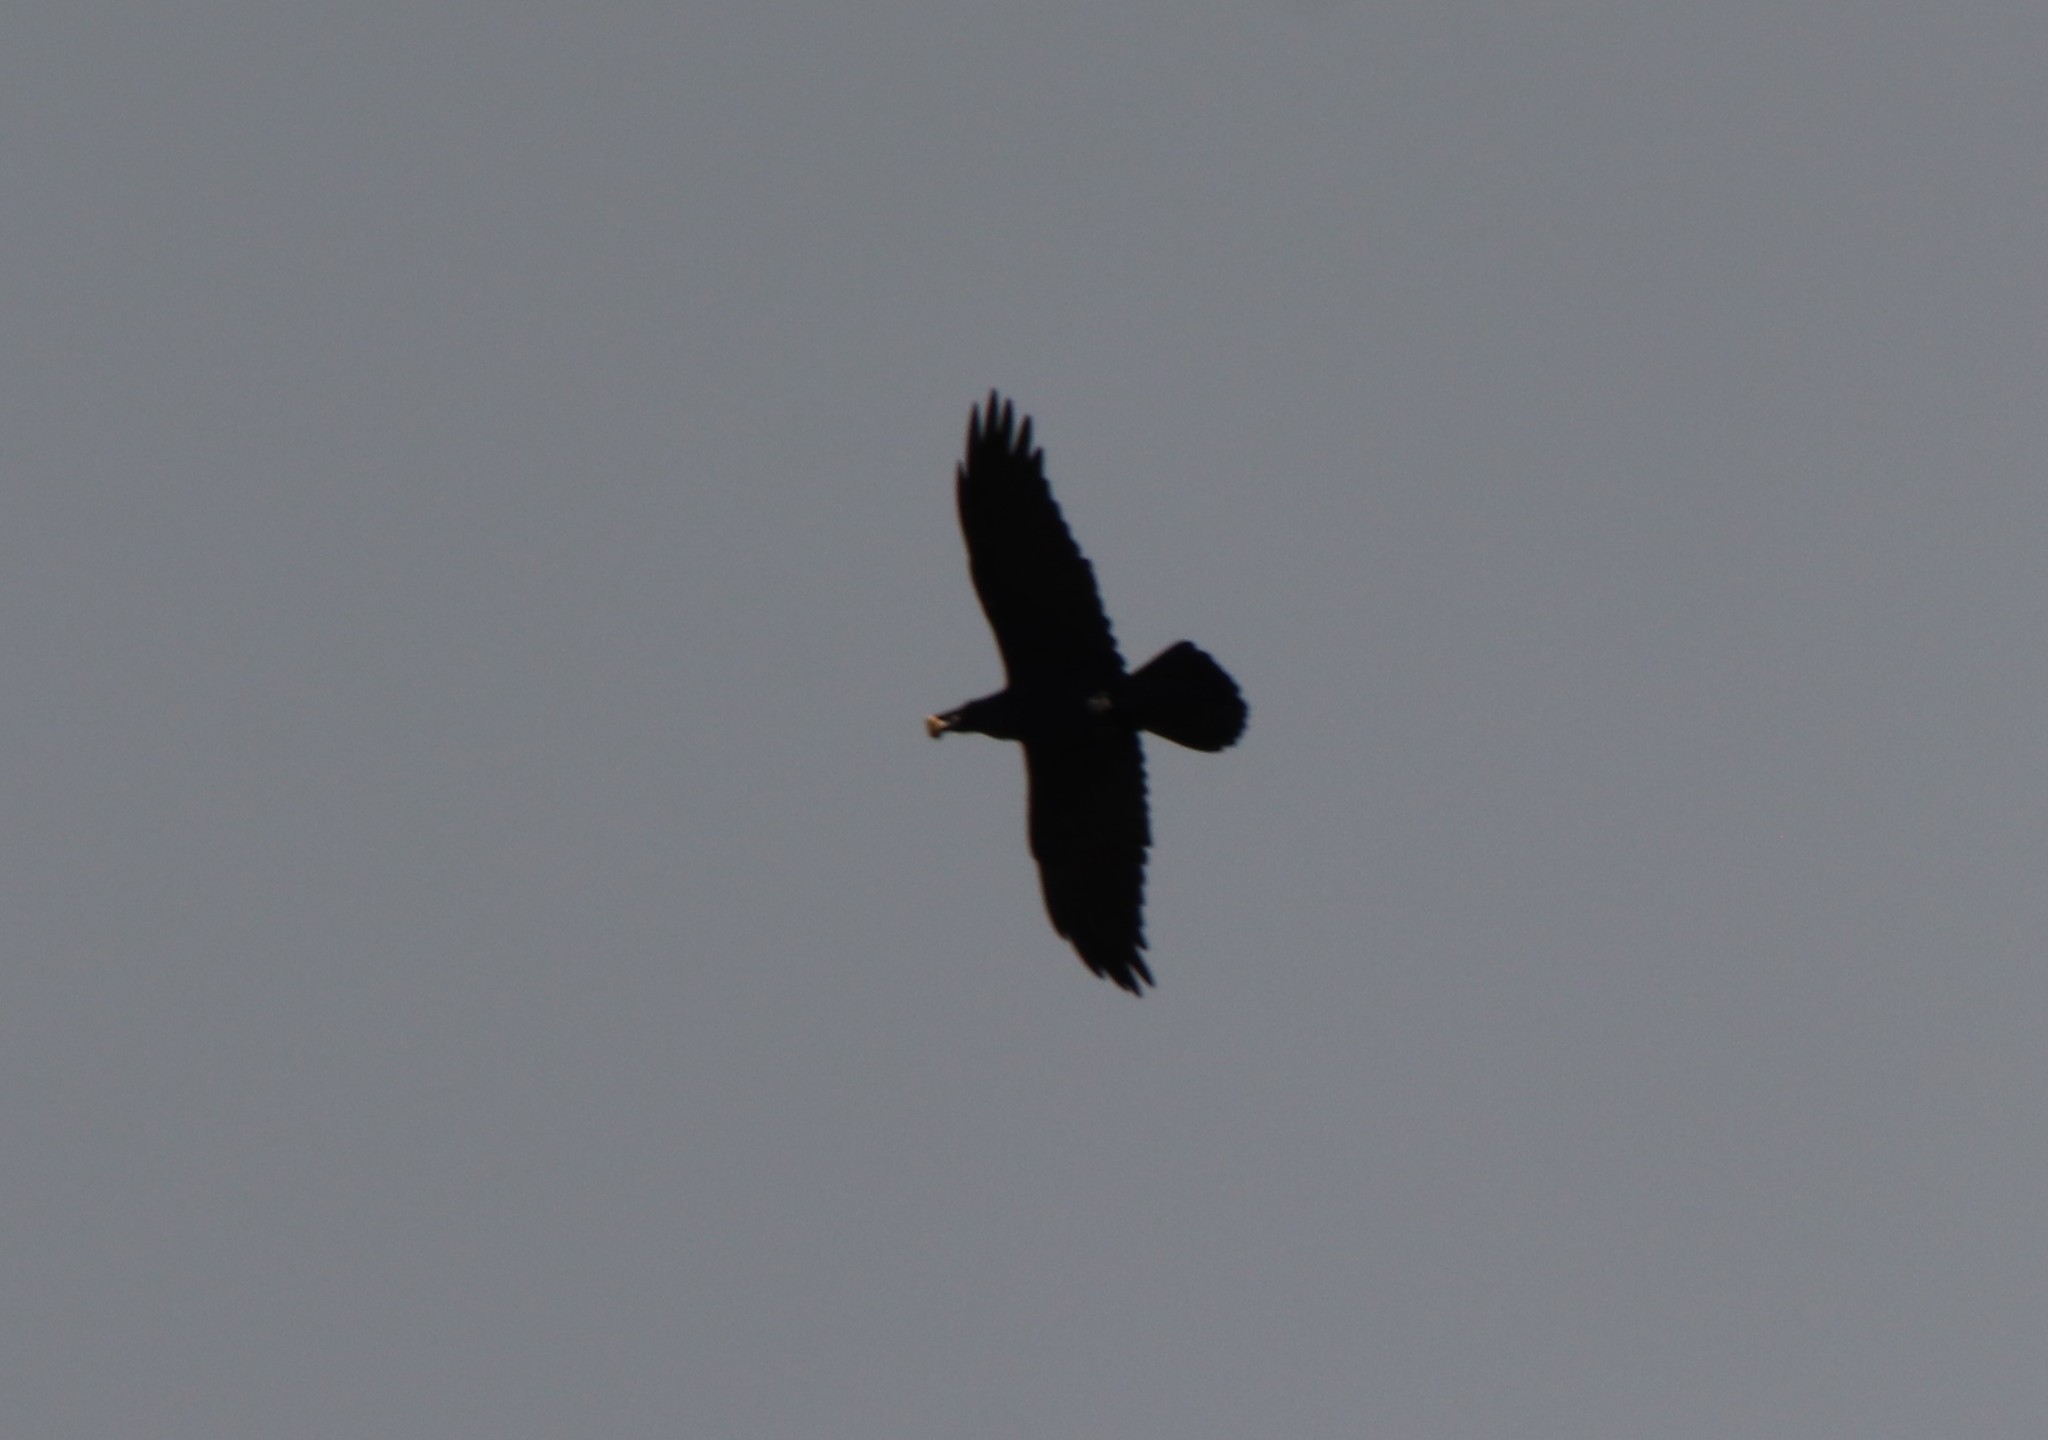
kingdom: Animalia
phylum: Chordata
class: Aves
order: Passeriformes
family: Corvidae
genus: Corvus
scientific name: Corvus corax
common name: Common raven
